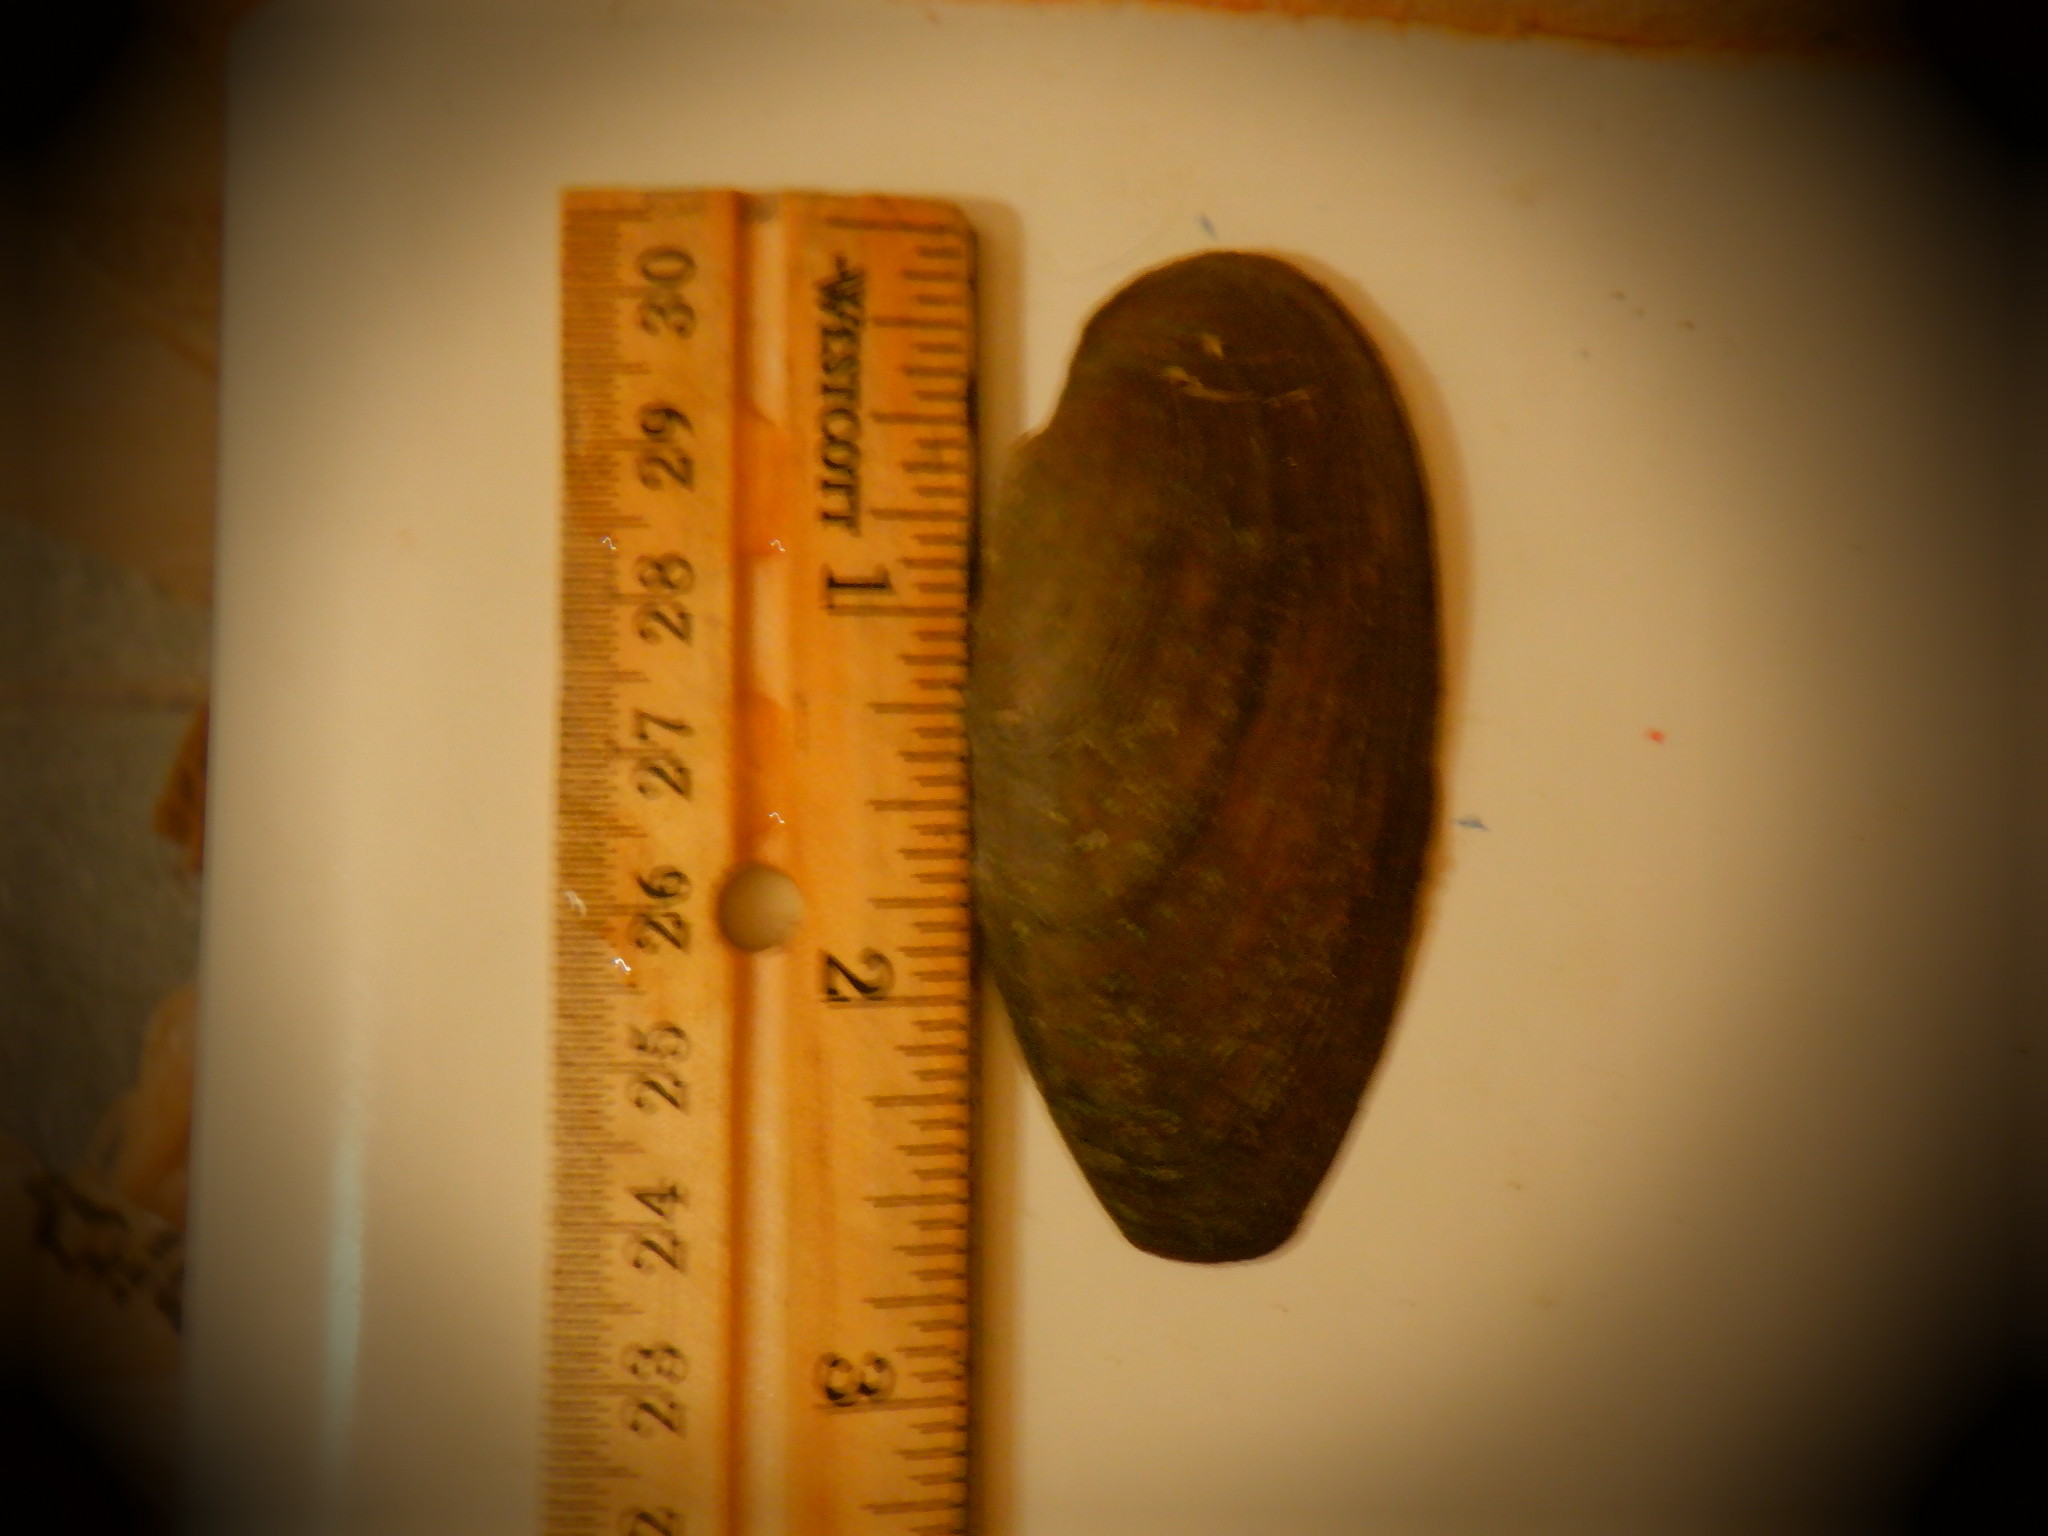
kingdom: Animalia
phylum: Mollusca
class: Bivalvia
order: Unionida
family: Unionidae
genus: Eurynia
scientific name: Eurynia dilatata
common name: Spike
